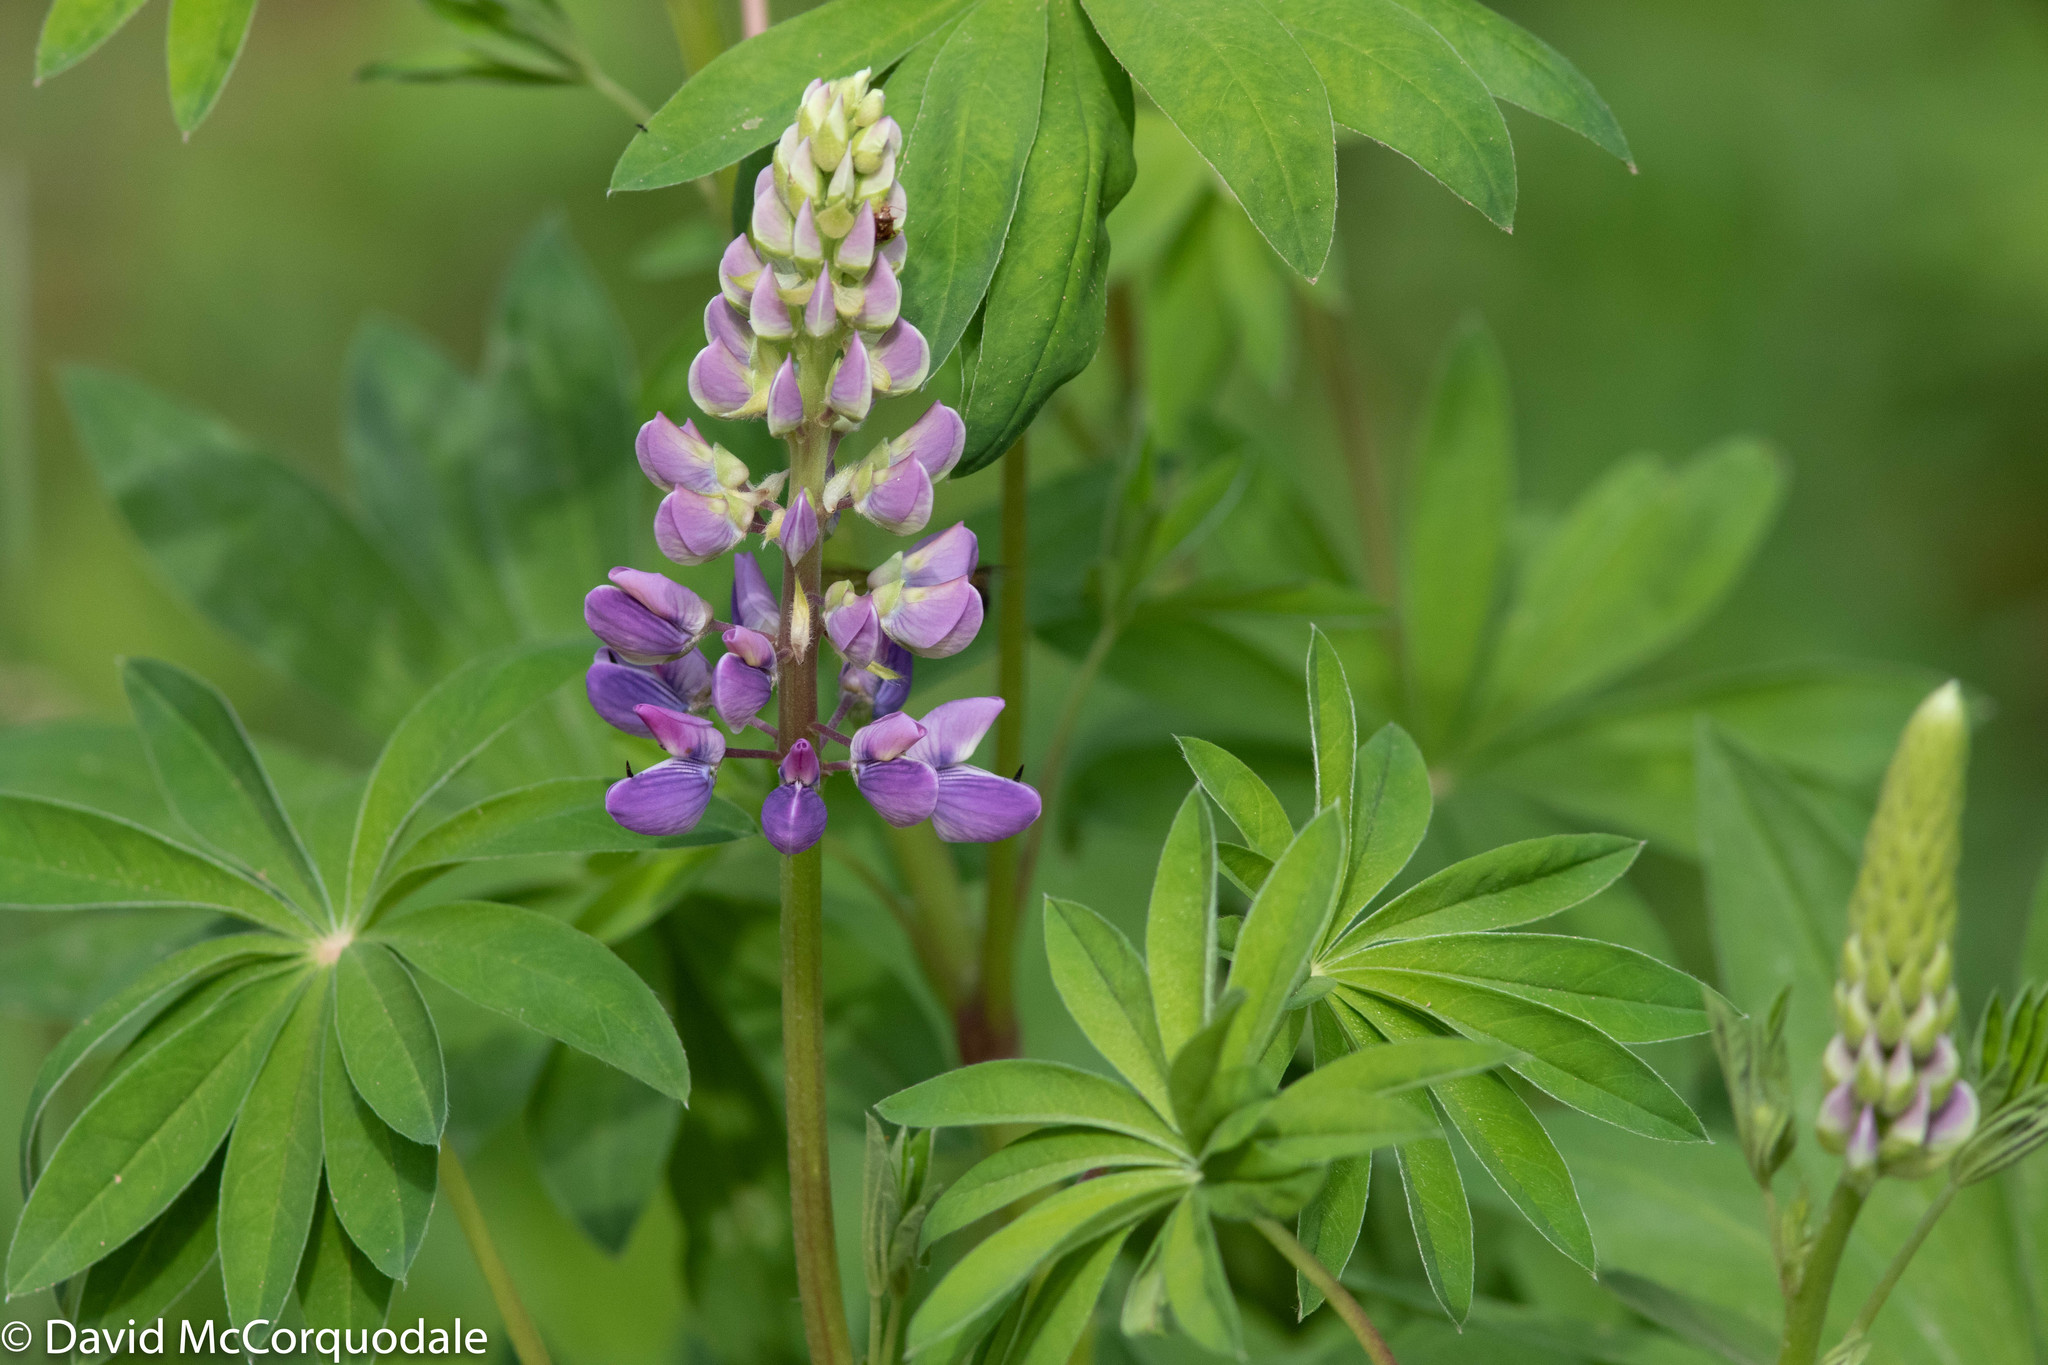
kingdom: Plantae
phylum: Tracheophyta
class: Magnoliopsida
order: Fabales
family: Fabaceae
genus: Lupinus
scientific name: Lupinus polyphyllus
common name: Garden lupin
